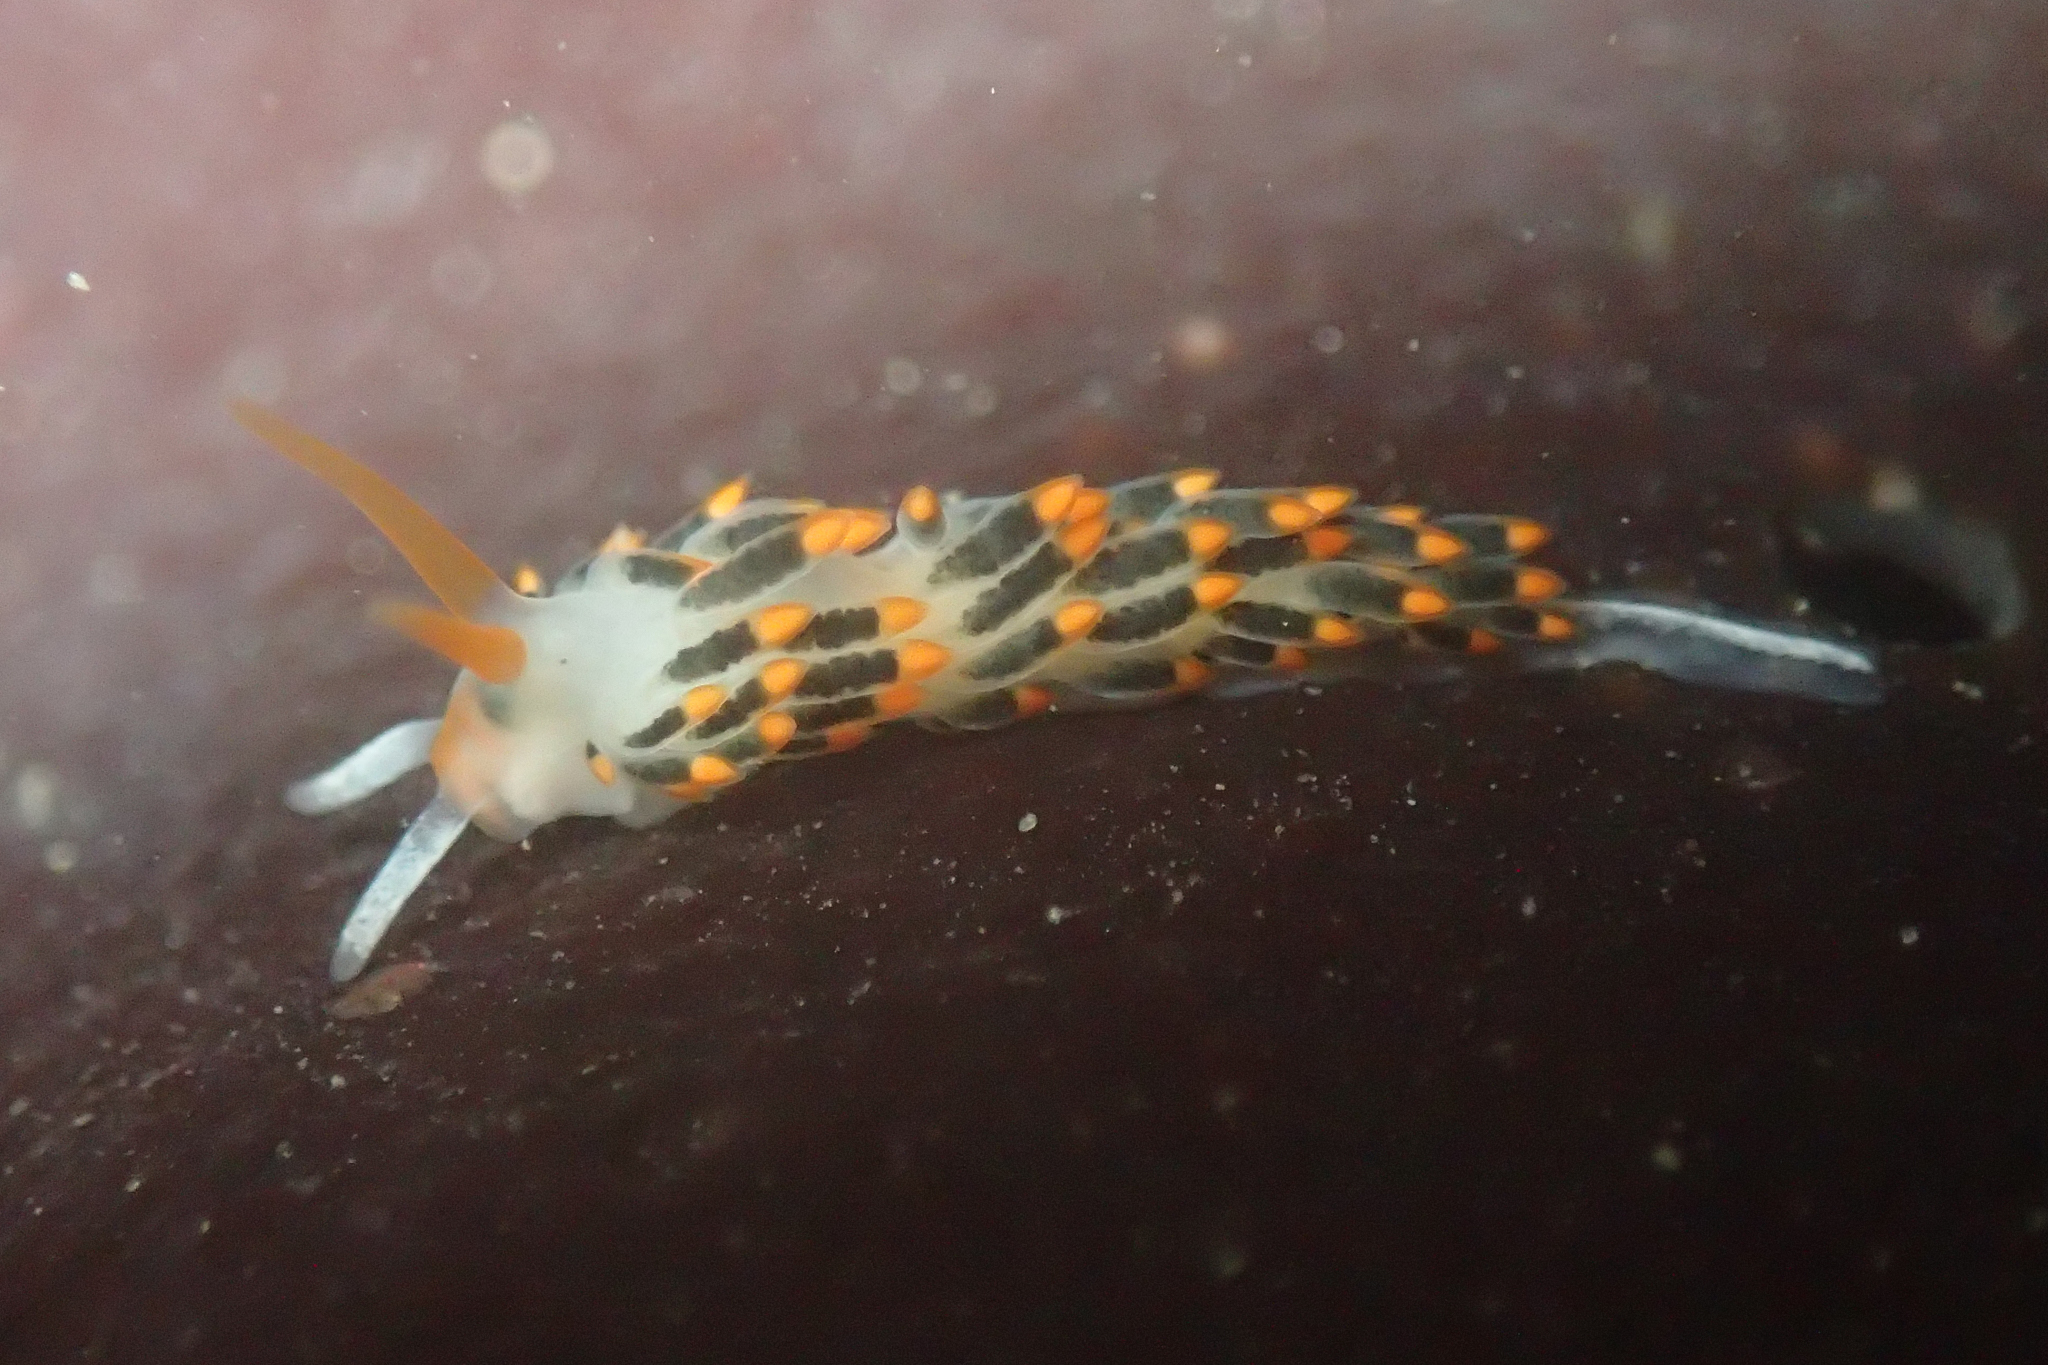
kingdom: Animalia
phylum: Mollusca
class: Gastropoda
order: Nudibranchia
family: Trinchesiidae
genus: Diaphoreolis
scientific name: Diaphoreolis lagunae
